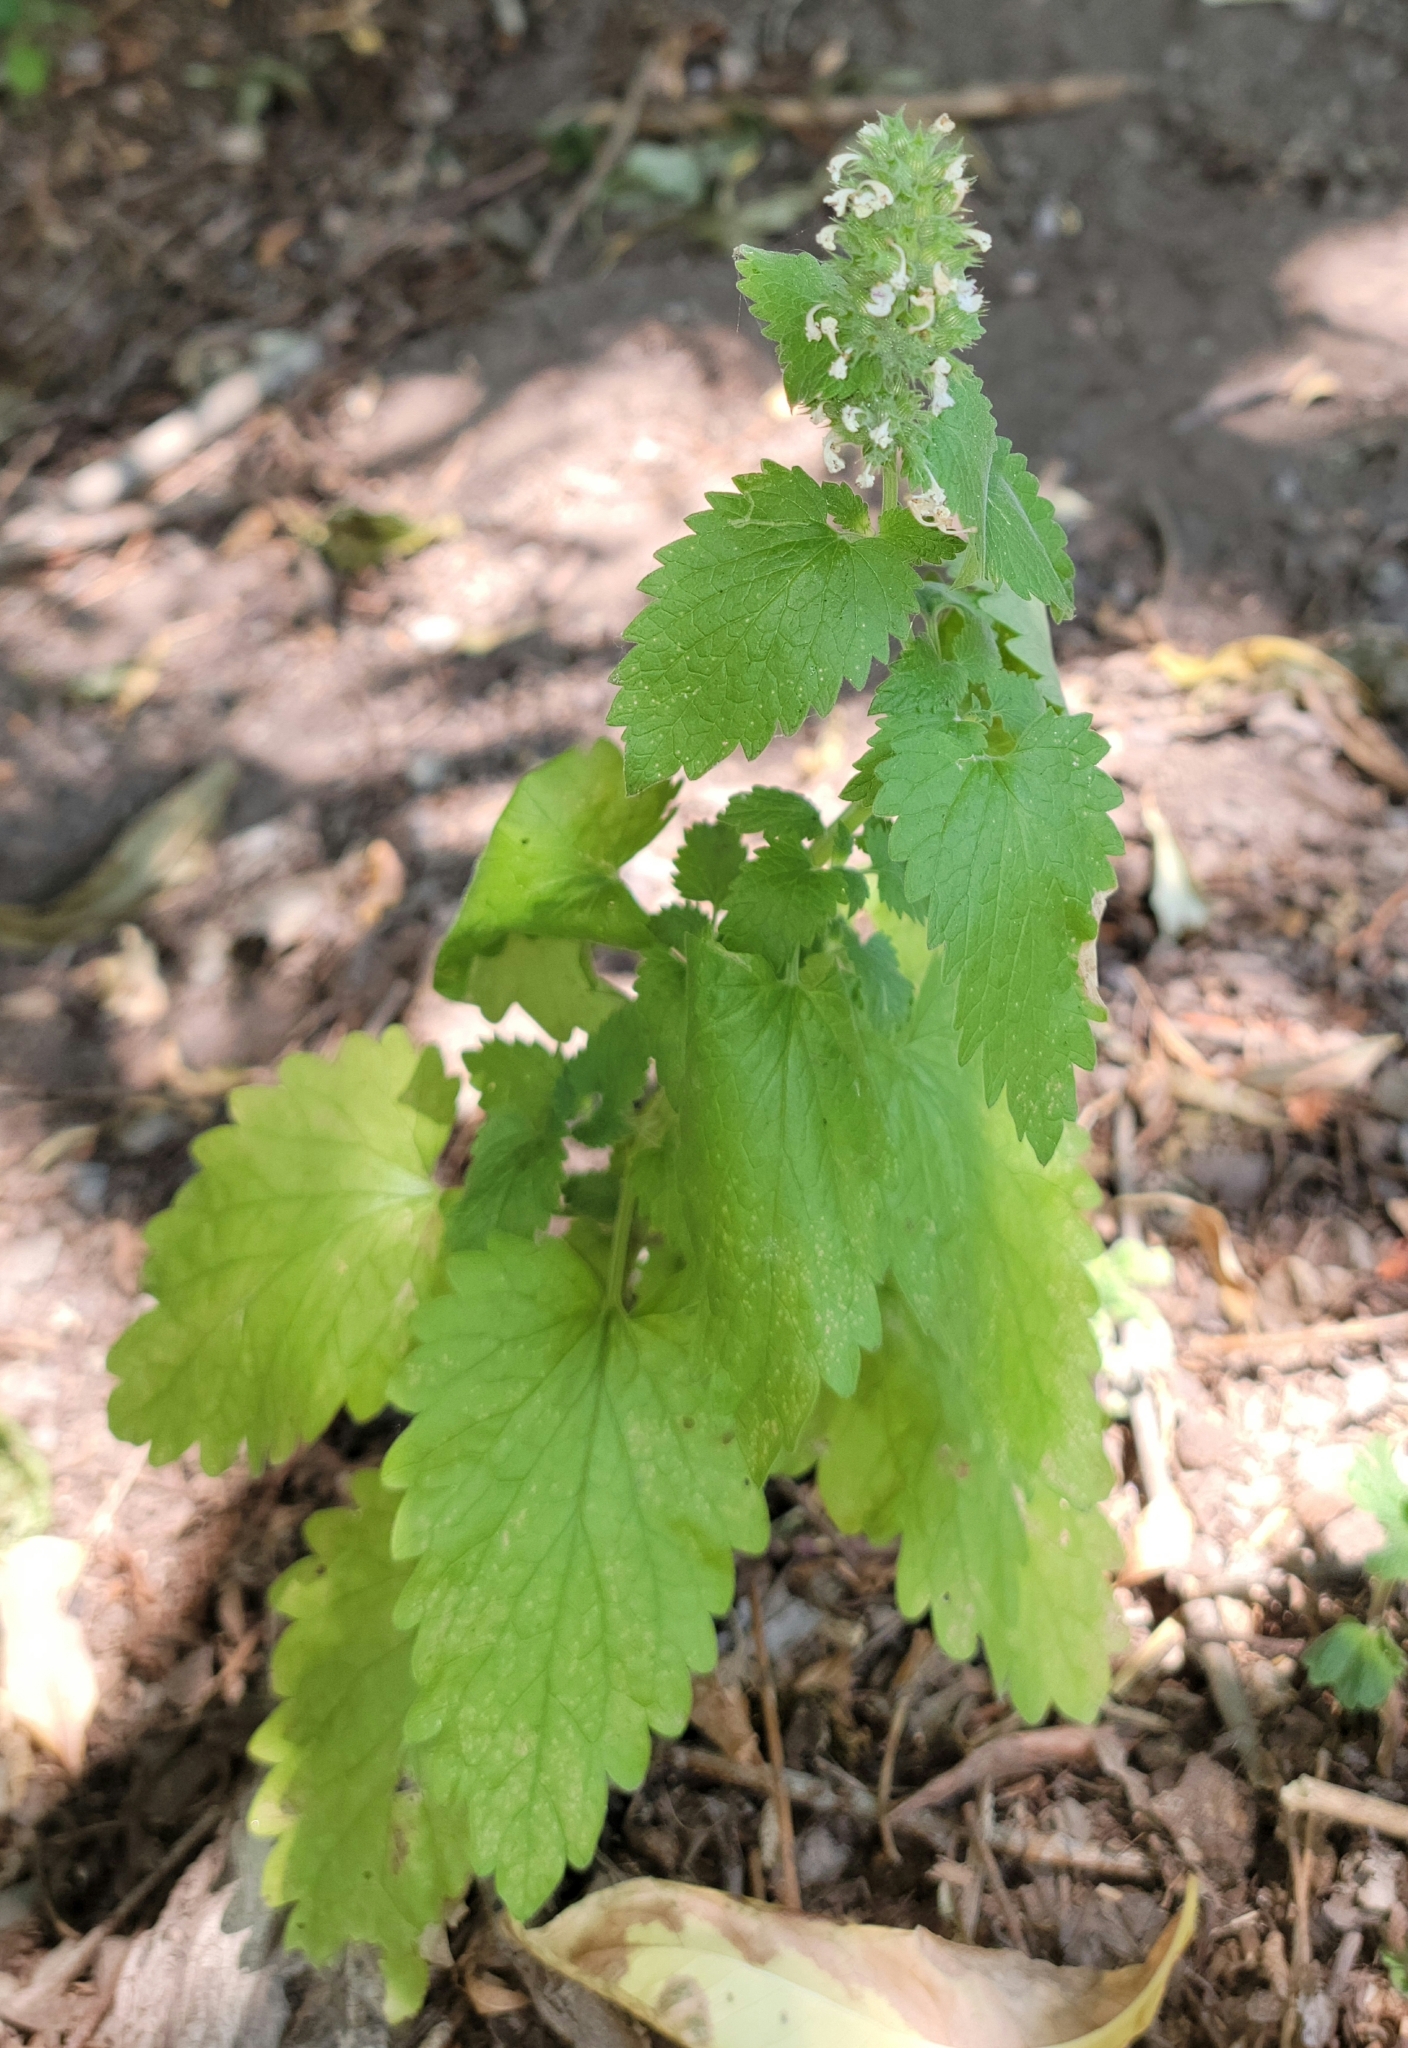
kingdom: Plantae
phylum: Tracheophyta
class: Magnoliopsida
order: Lamiales
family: Lamiaceae
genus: Nepeta
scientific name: Nepeta cataria
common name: Catnip
